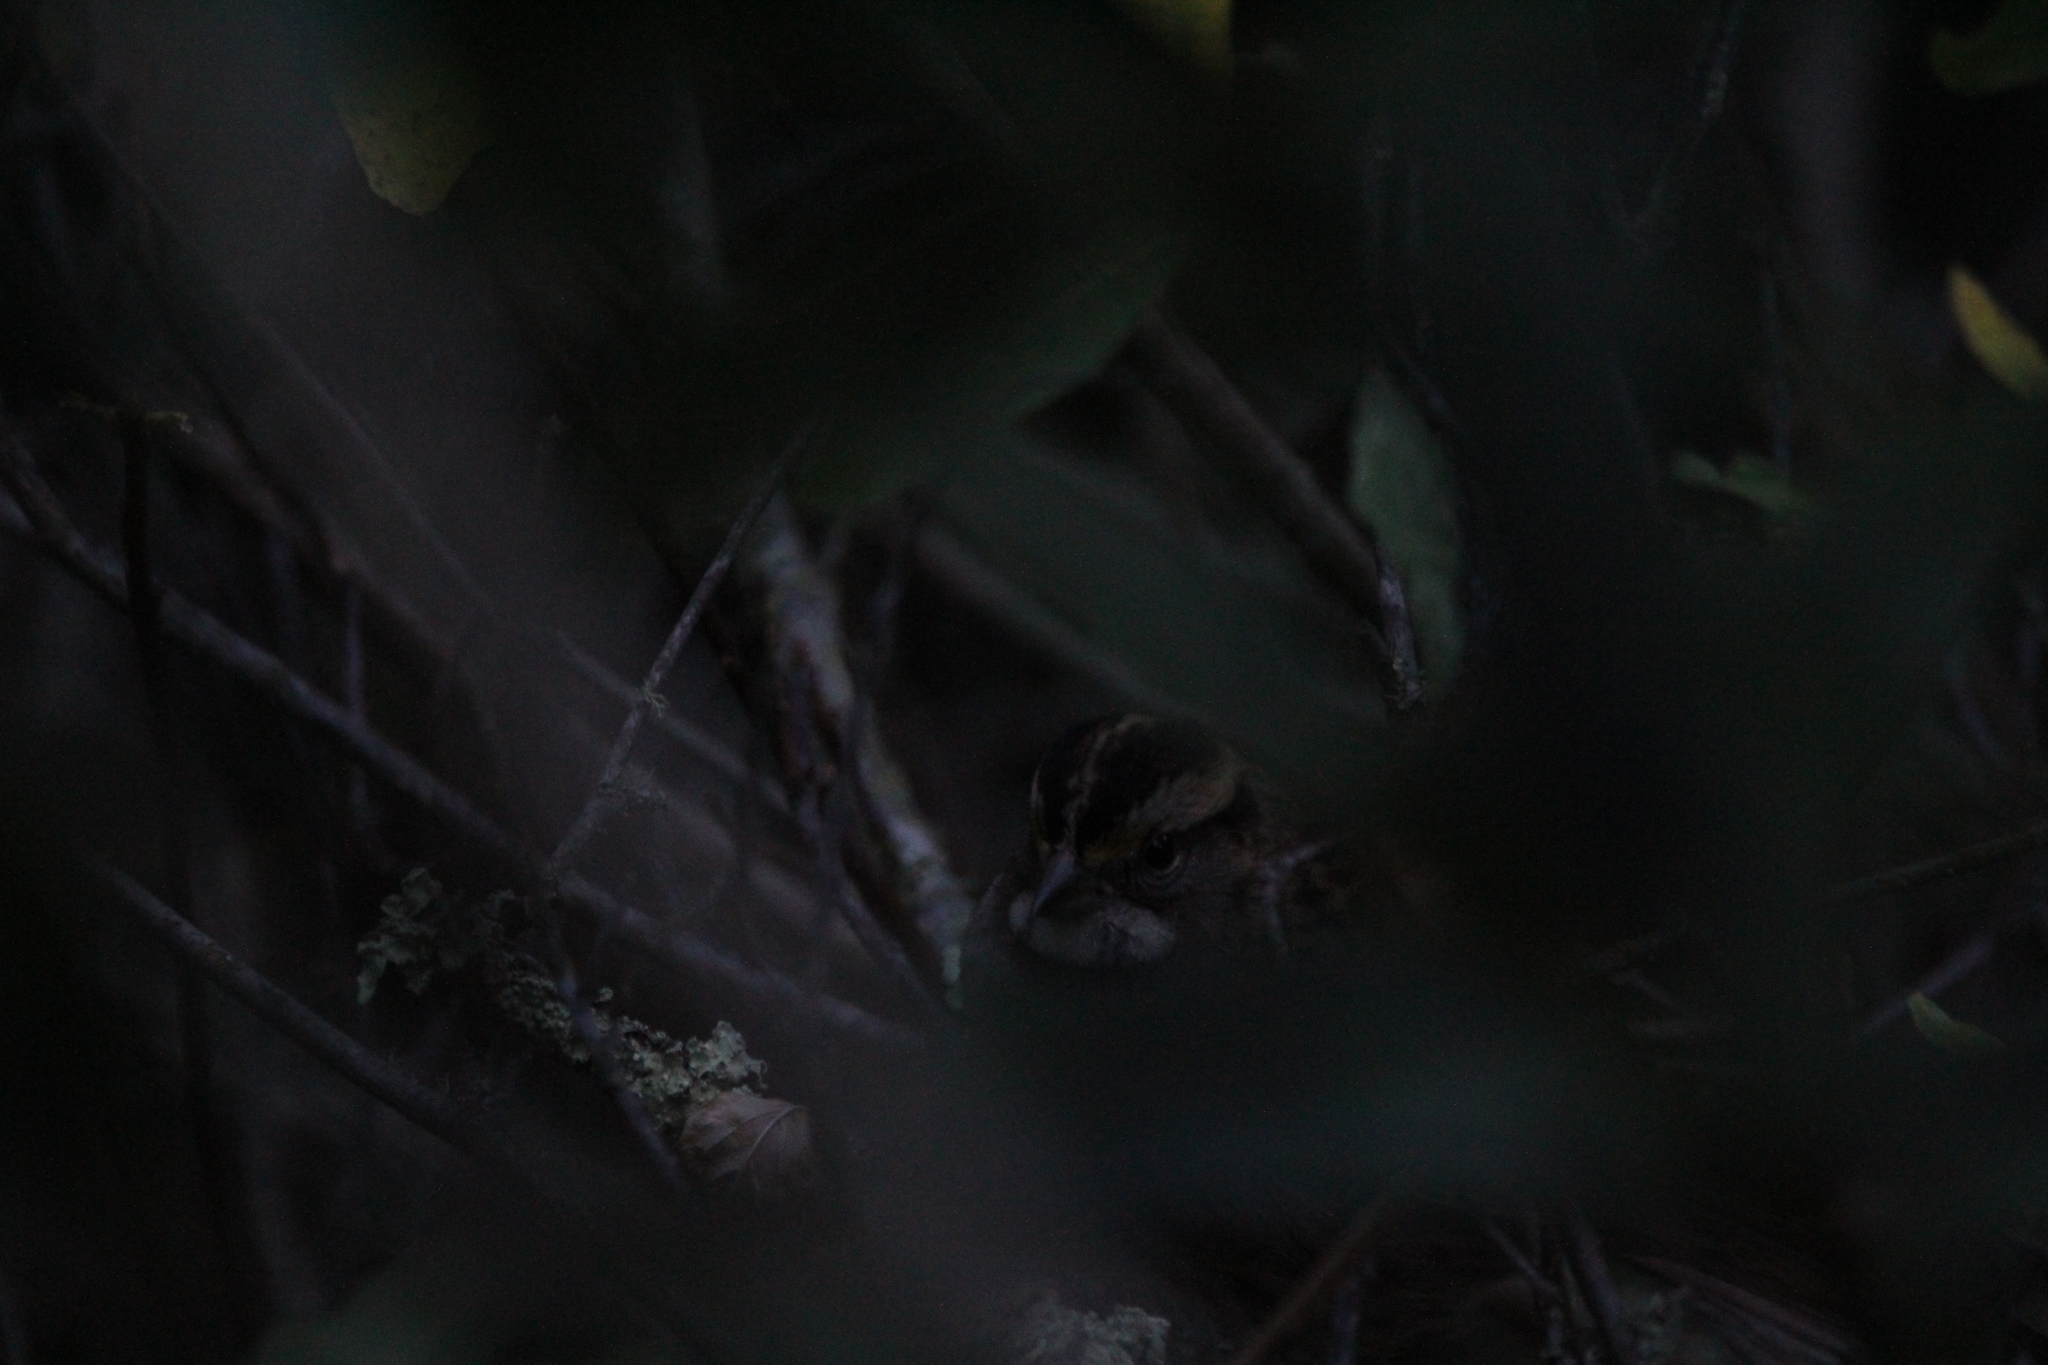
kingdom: Animalia
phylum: Chordata
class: Aves
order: Passeriformes
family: Passerellidae
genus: Zonotrichia
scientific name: Zonotrichia albicollis
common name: White-throated sparrow
